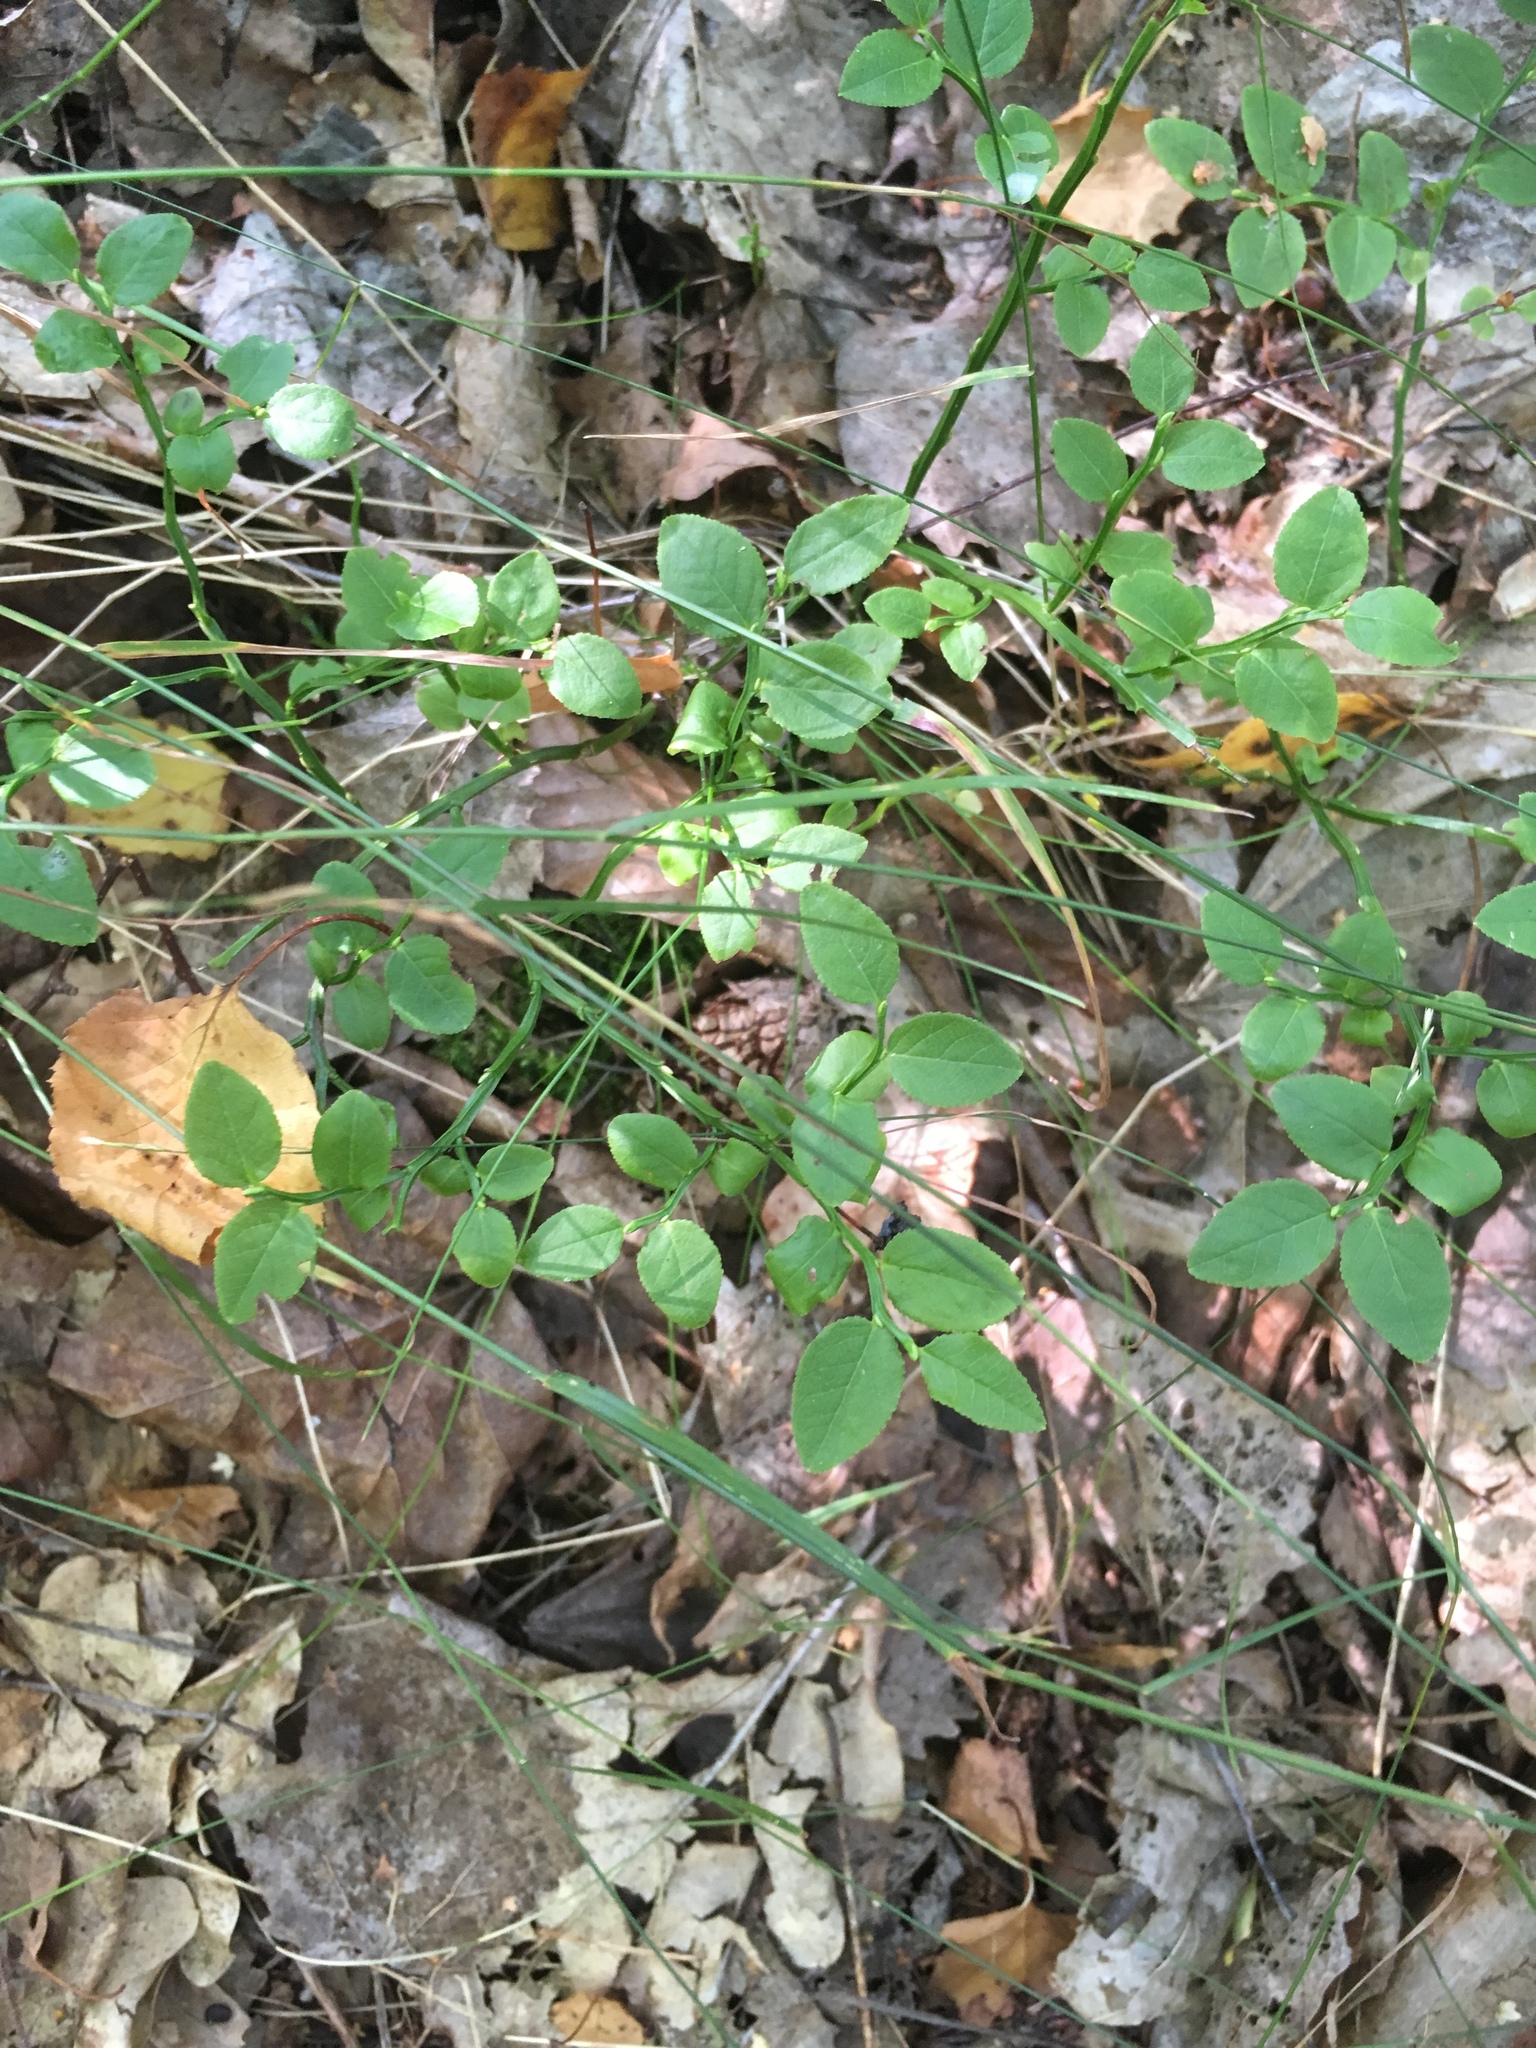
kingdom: Plantae
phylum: Tracheophyta
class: Magnoliopsida
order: Ericales
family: Ericaceae
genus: Vaccinium
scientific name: Vaccinium myrtillus
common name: Bilberry
